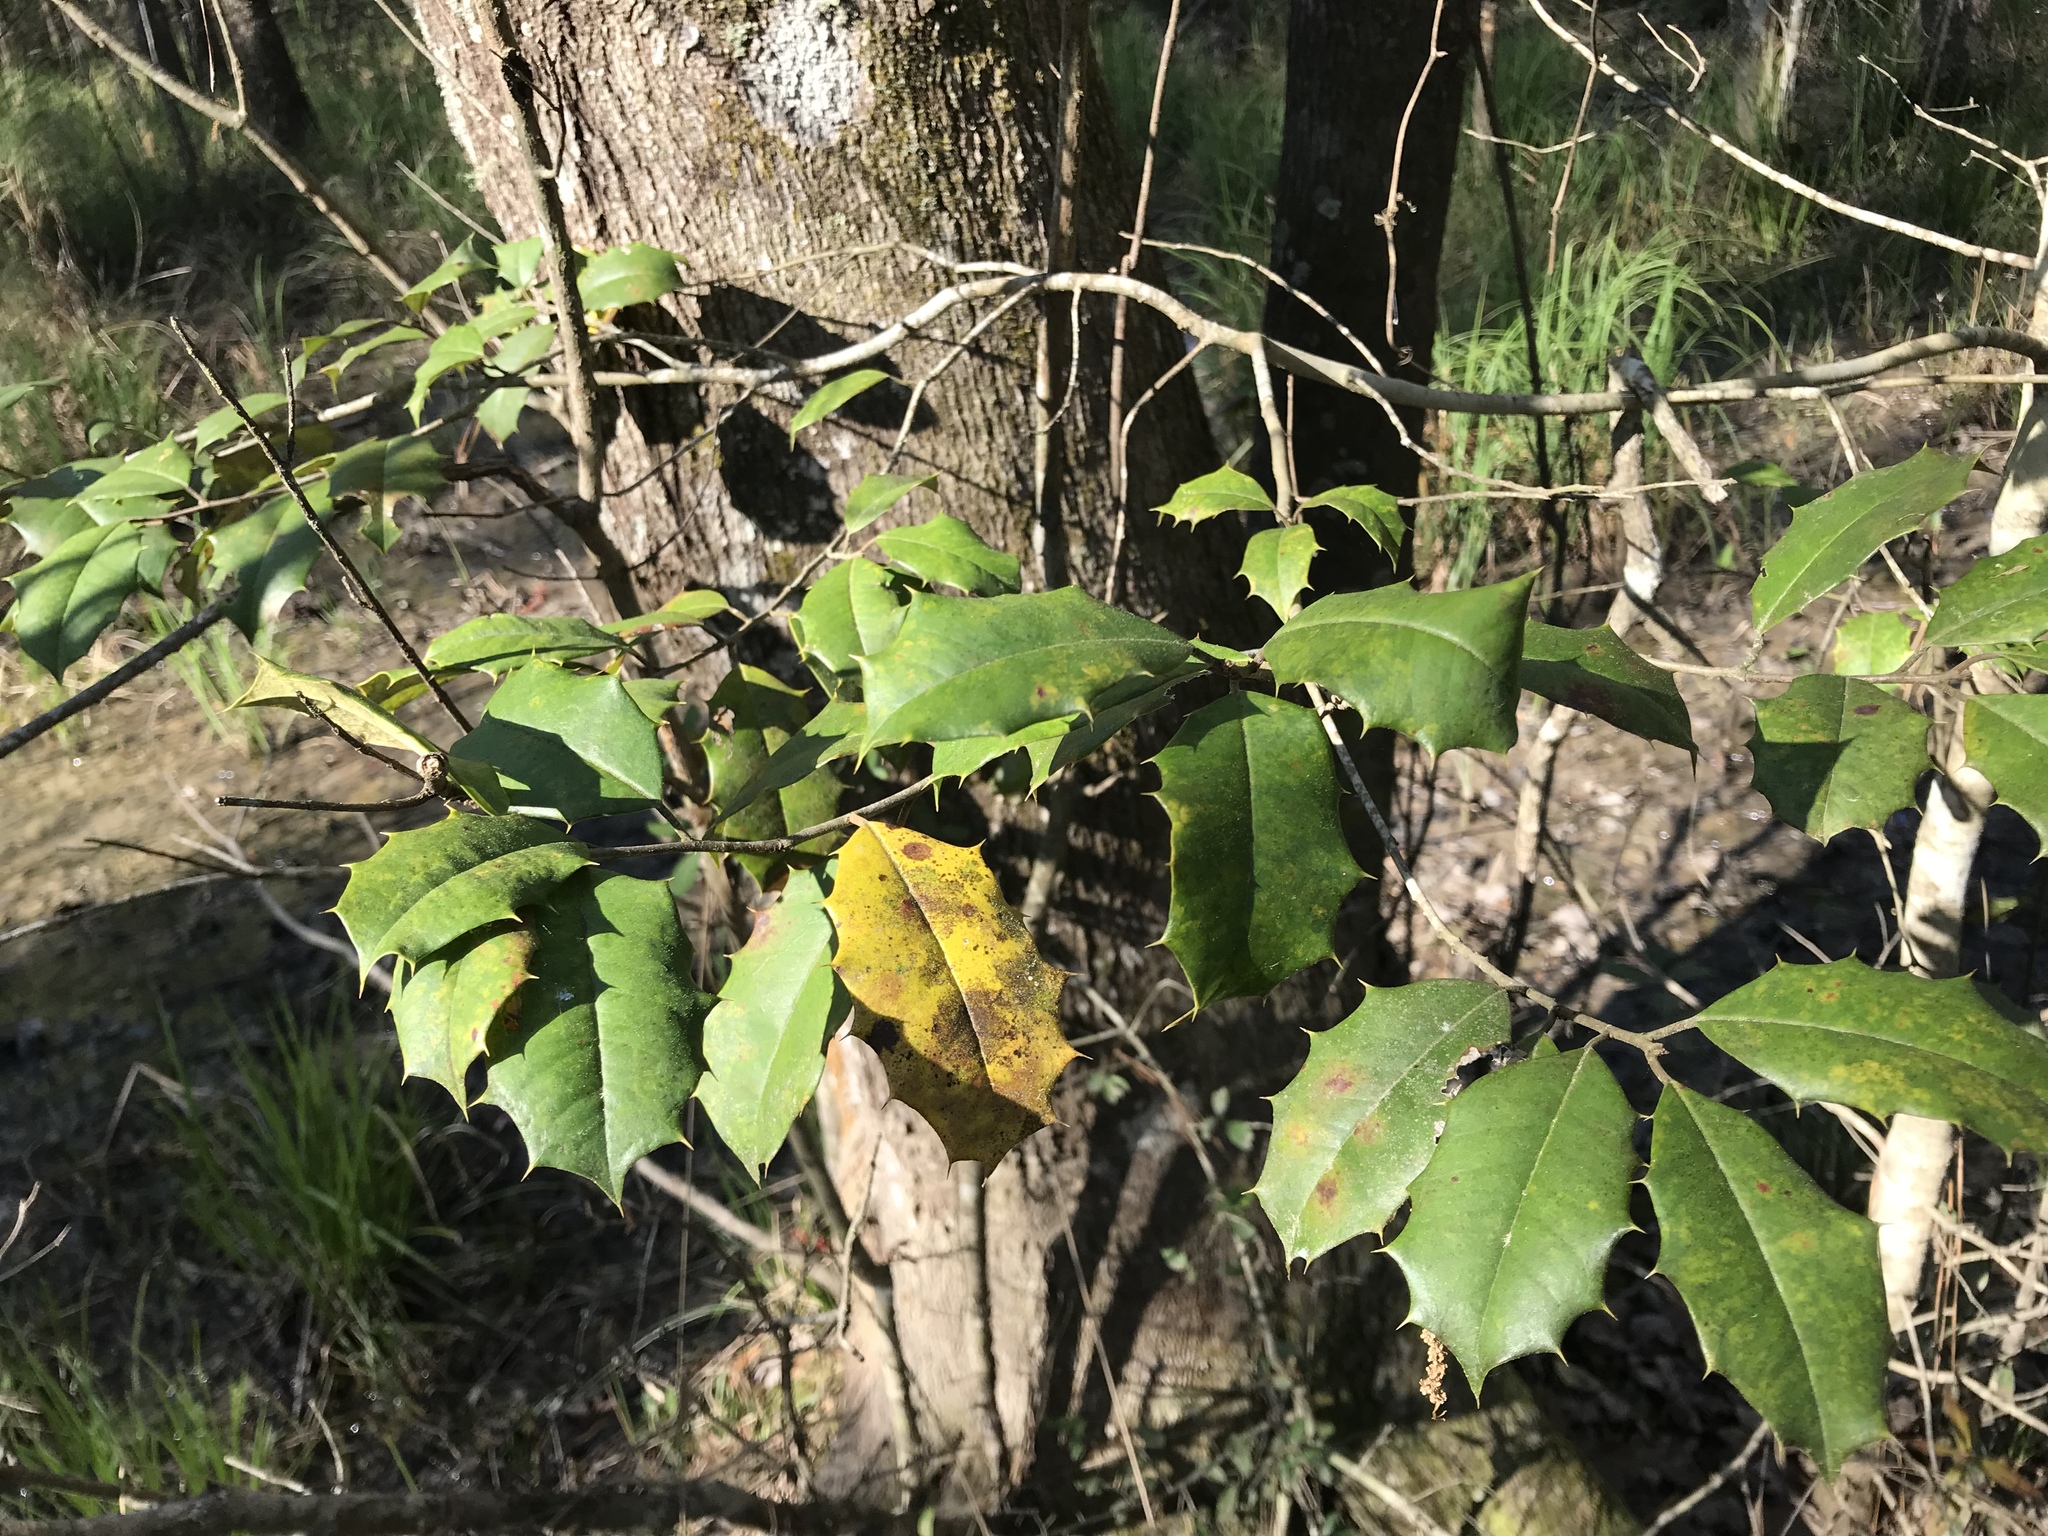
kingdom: Plantae
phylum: Tracheophyta
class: Magnoliopsida
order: Aquifoliales
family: Aquifoliaceae
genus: Ilex
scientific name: Ilex opaca
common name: American holly
